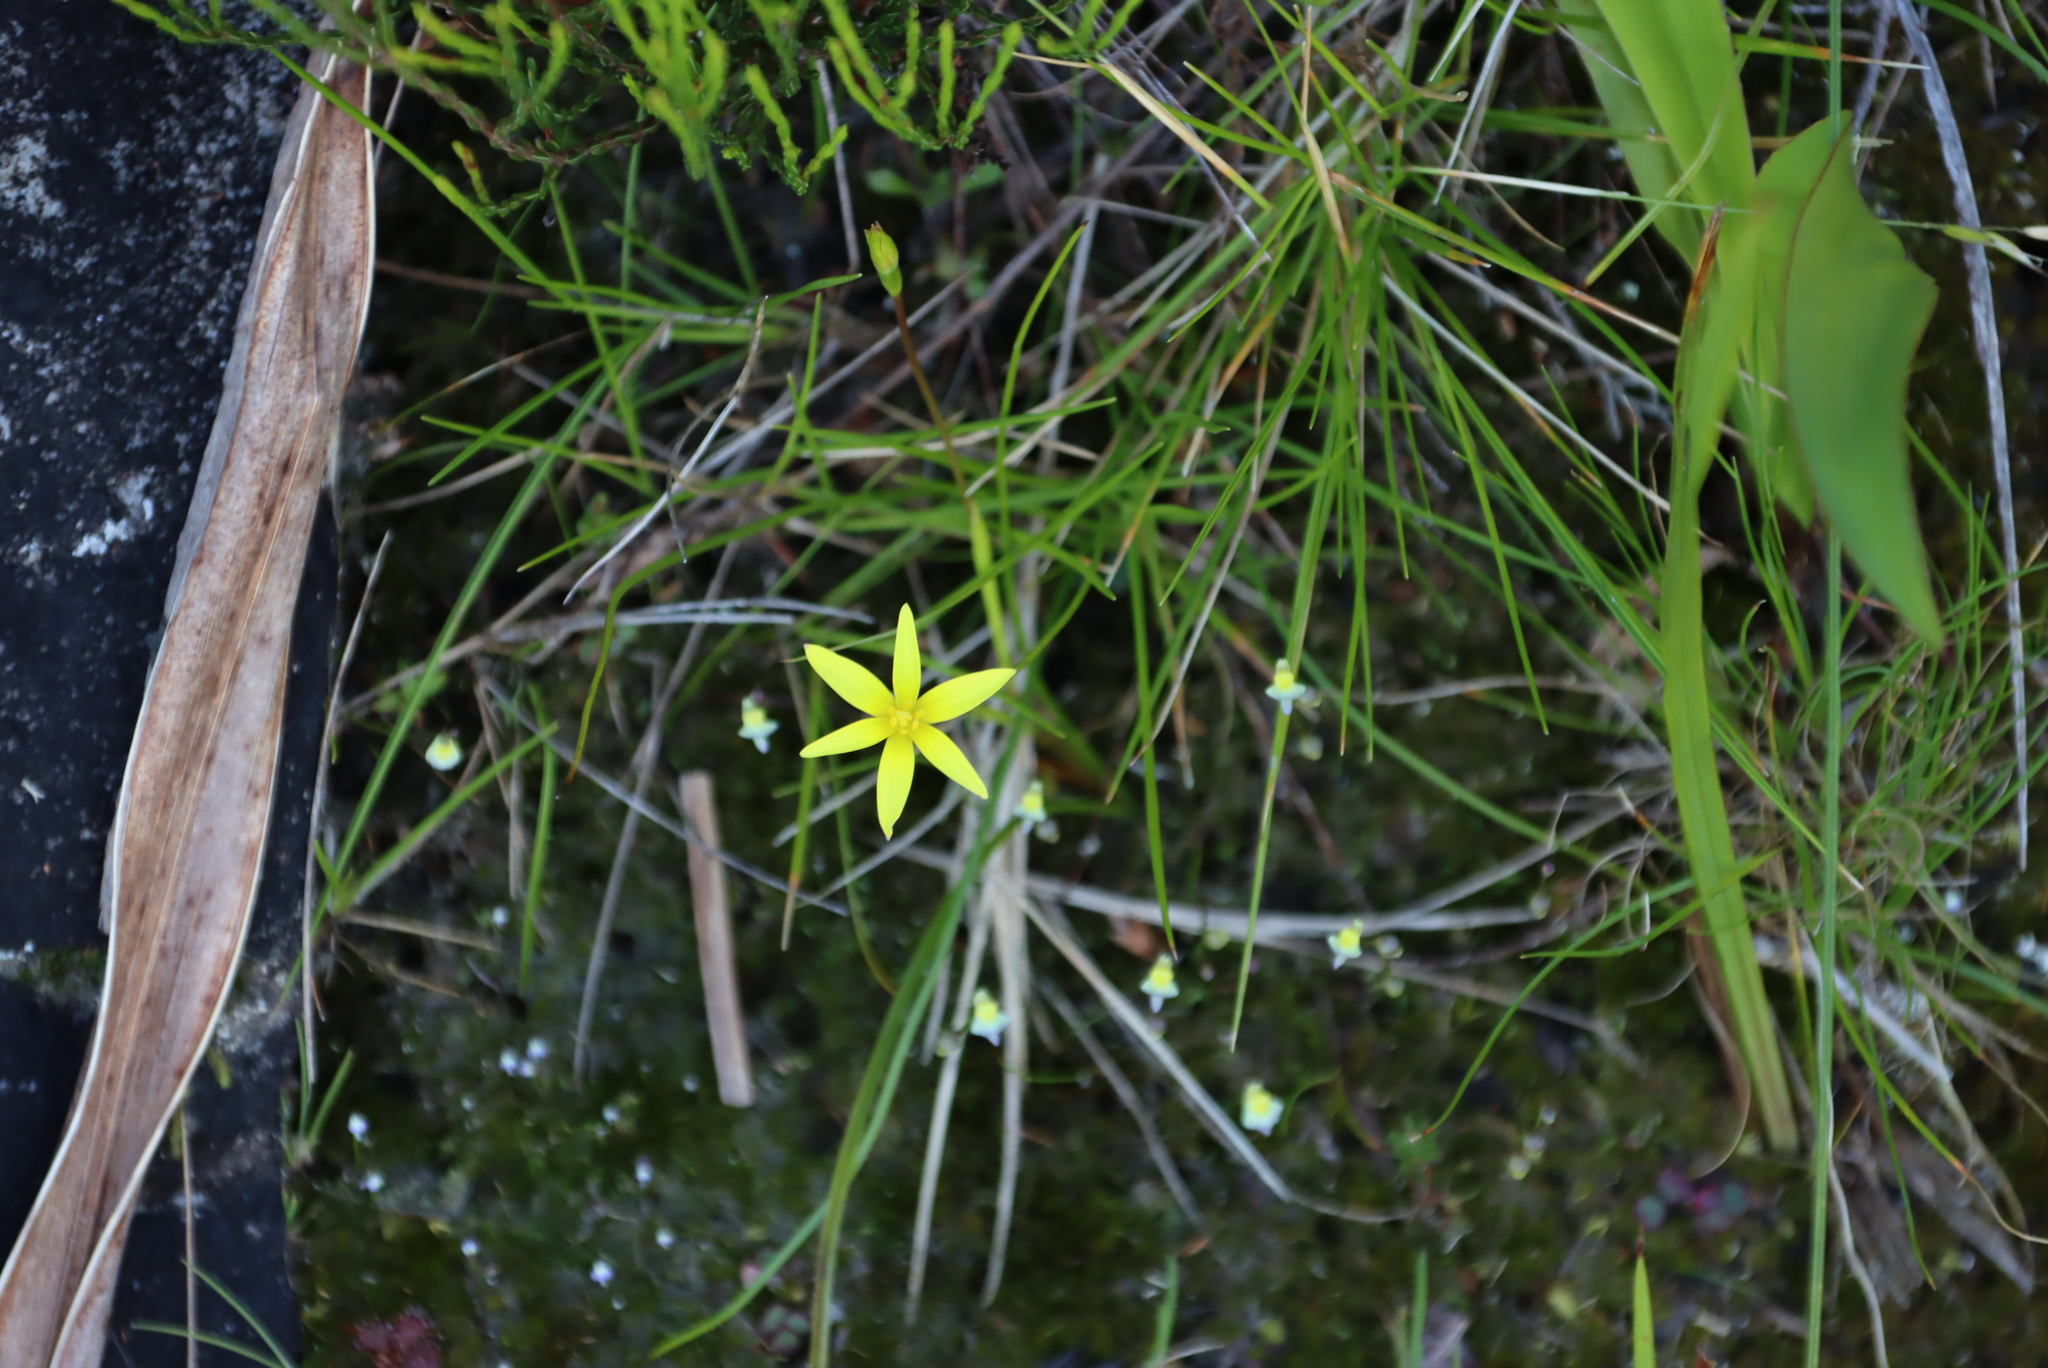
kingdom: Plantae
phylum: Tracheophyta
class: Magnoliopsida
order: Lamiales
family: Lentibulariaceae
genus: Utricularia
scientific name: Utricularia bisquamata
